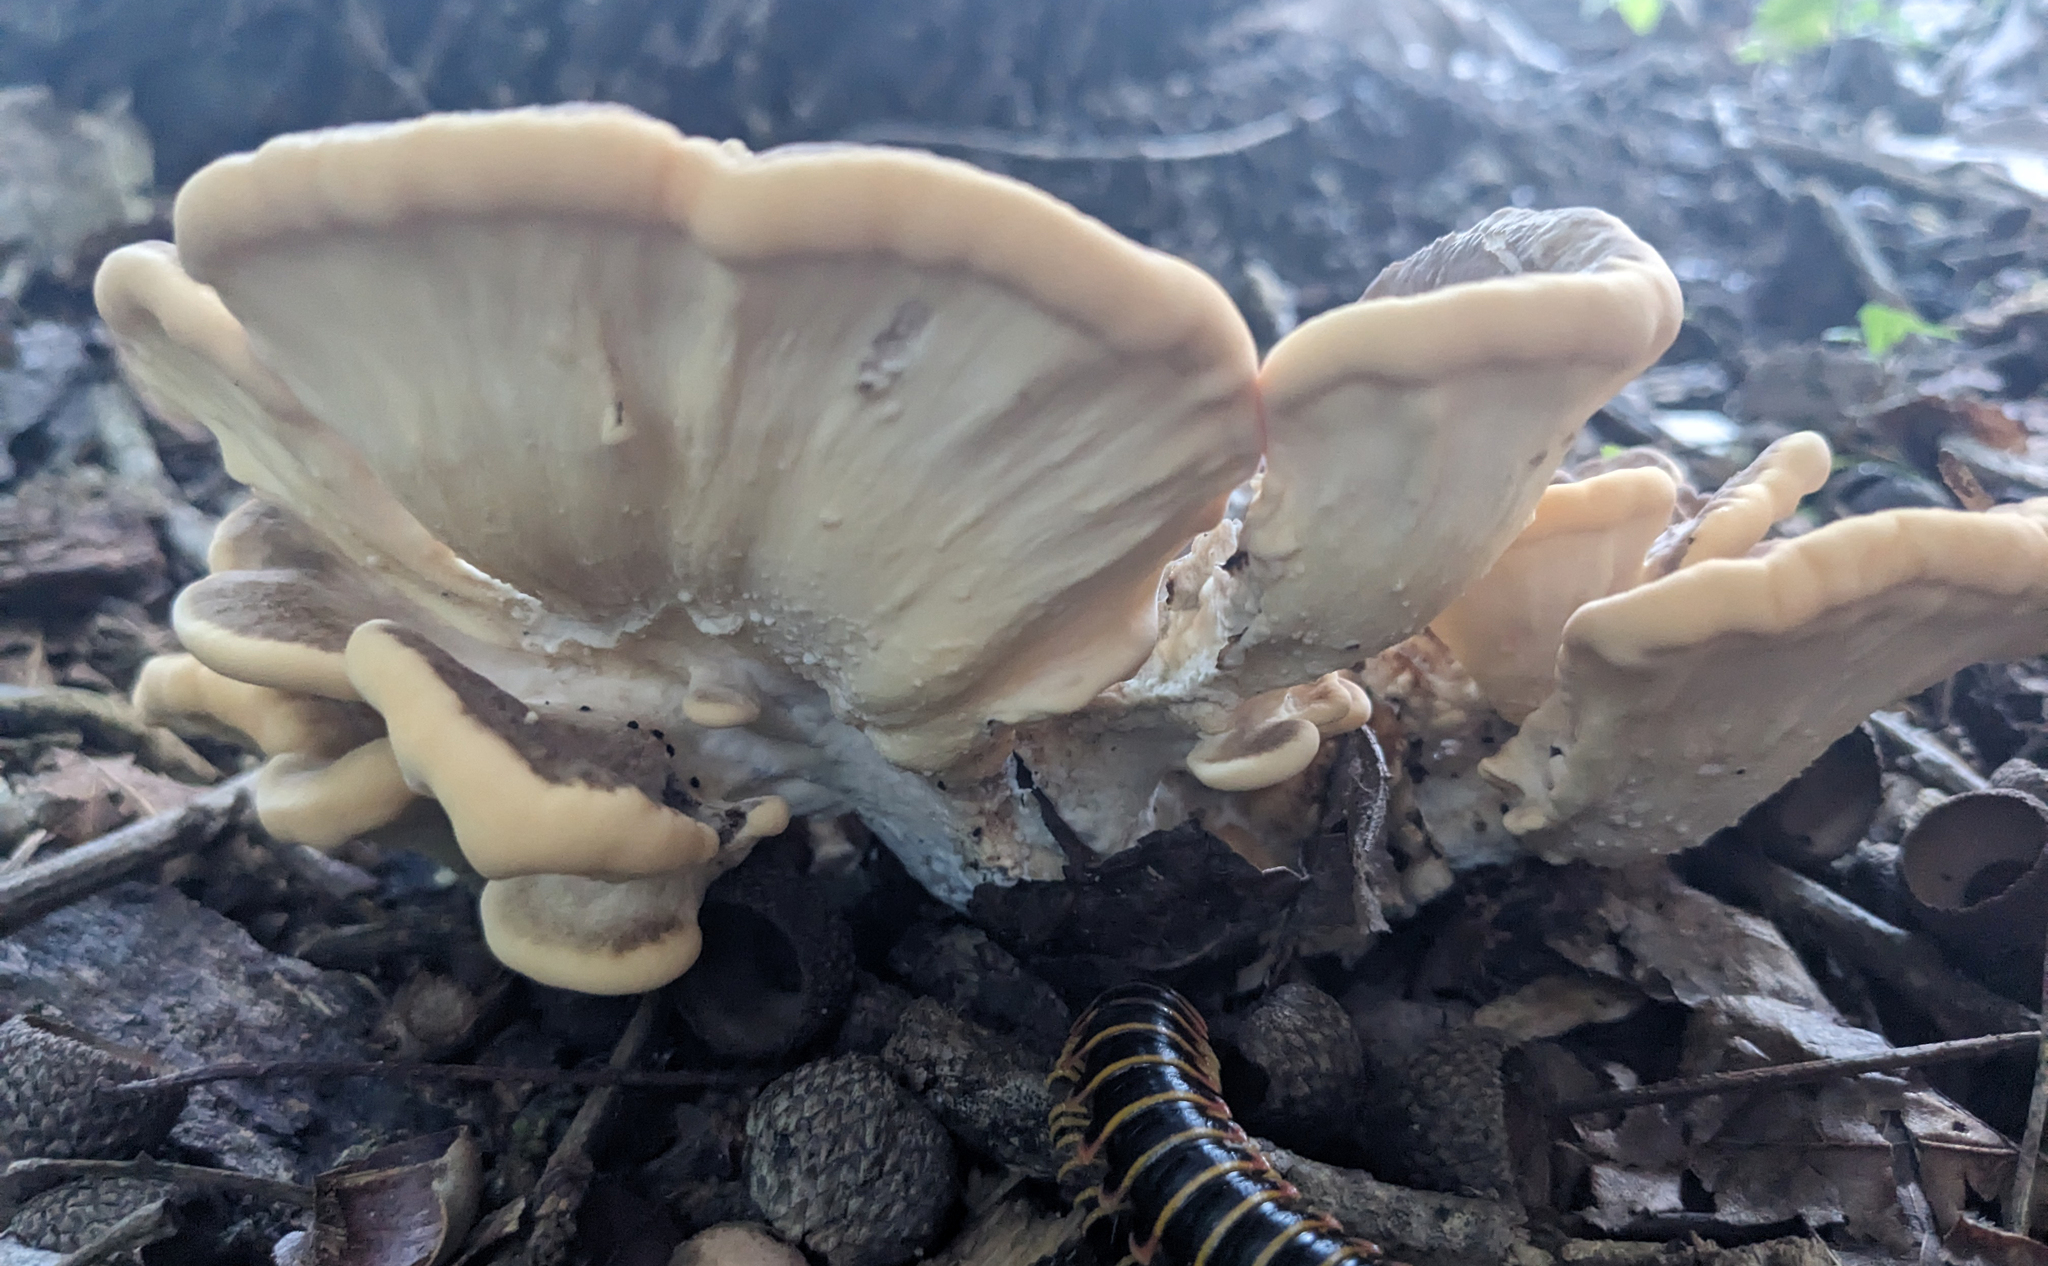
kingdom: Fungi
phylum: Basidiomycota
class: Agaricomycetes
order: Polyporales
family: Meripilaceae
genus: Meripilus
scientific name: Meripilus sumstinei
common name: Black-staining polypore
